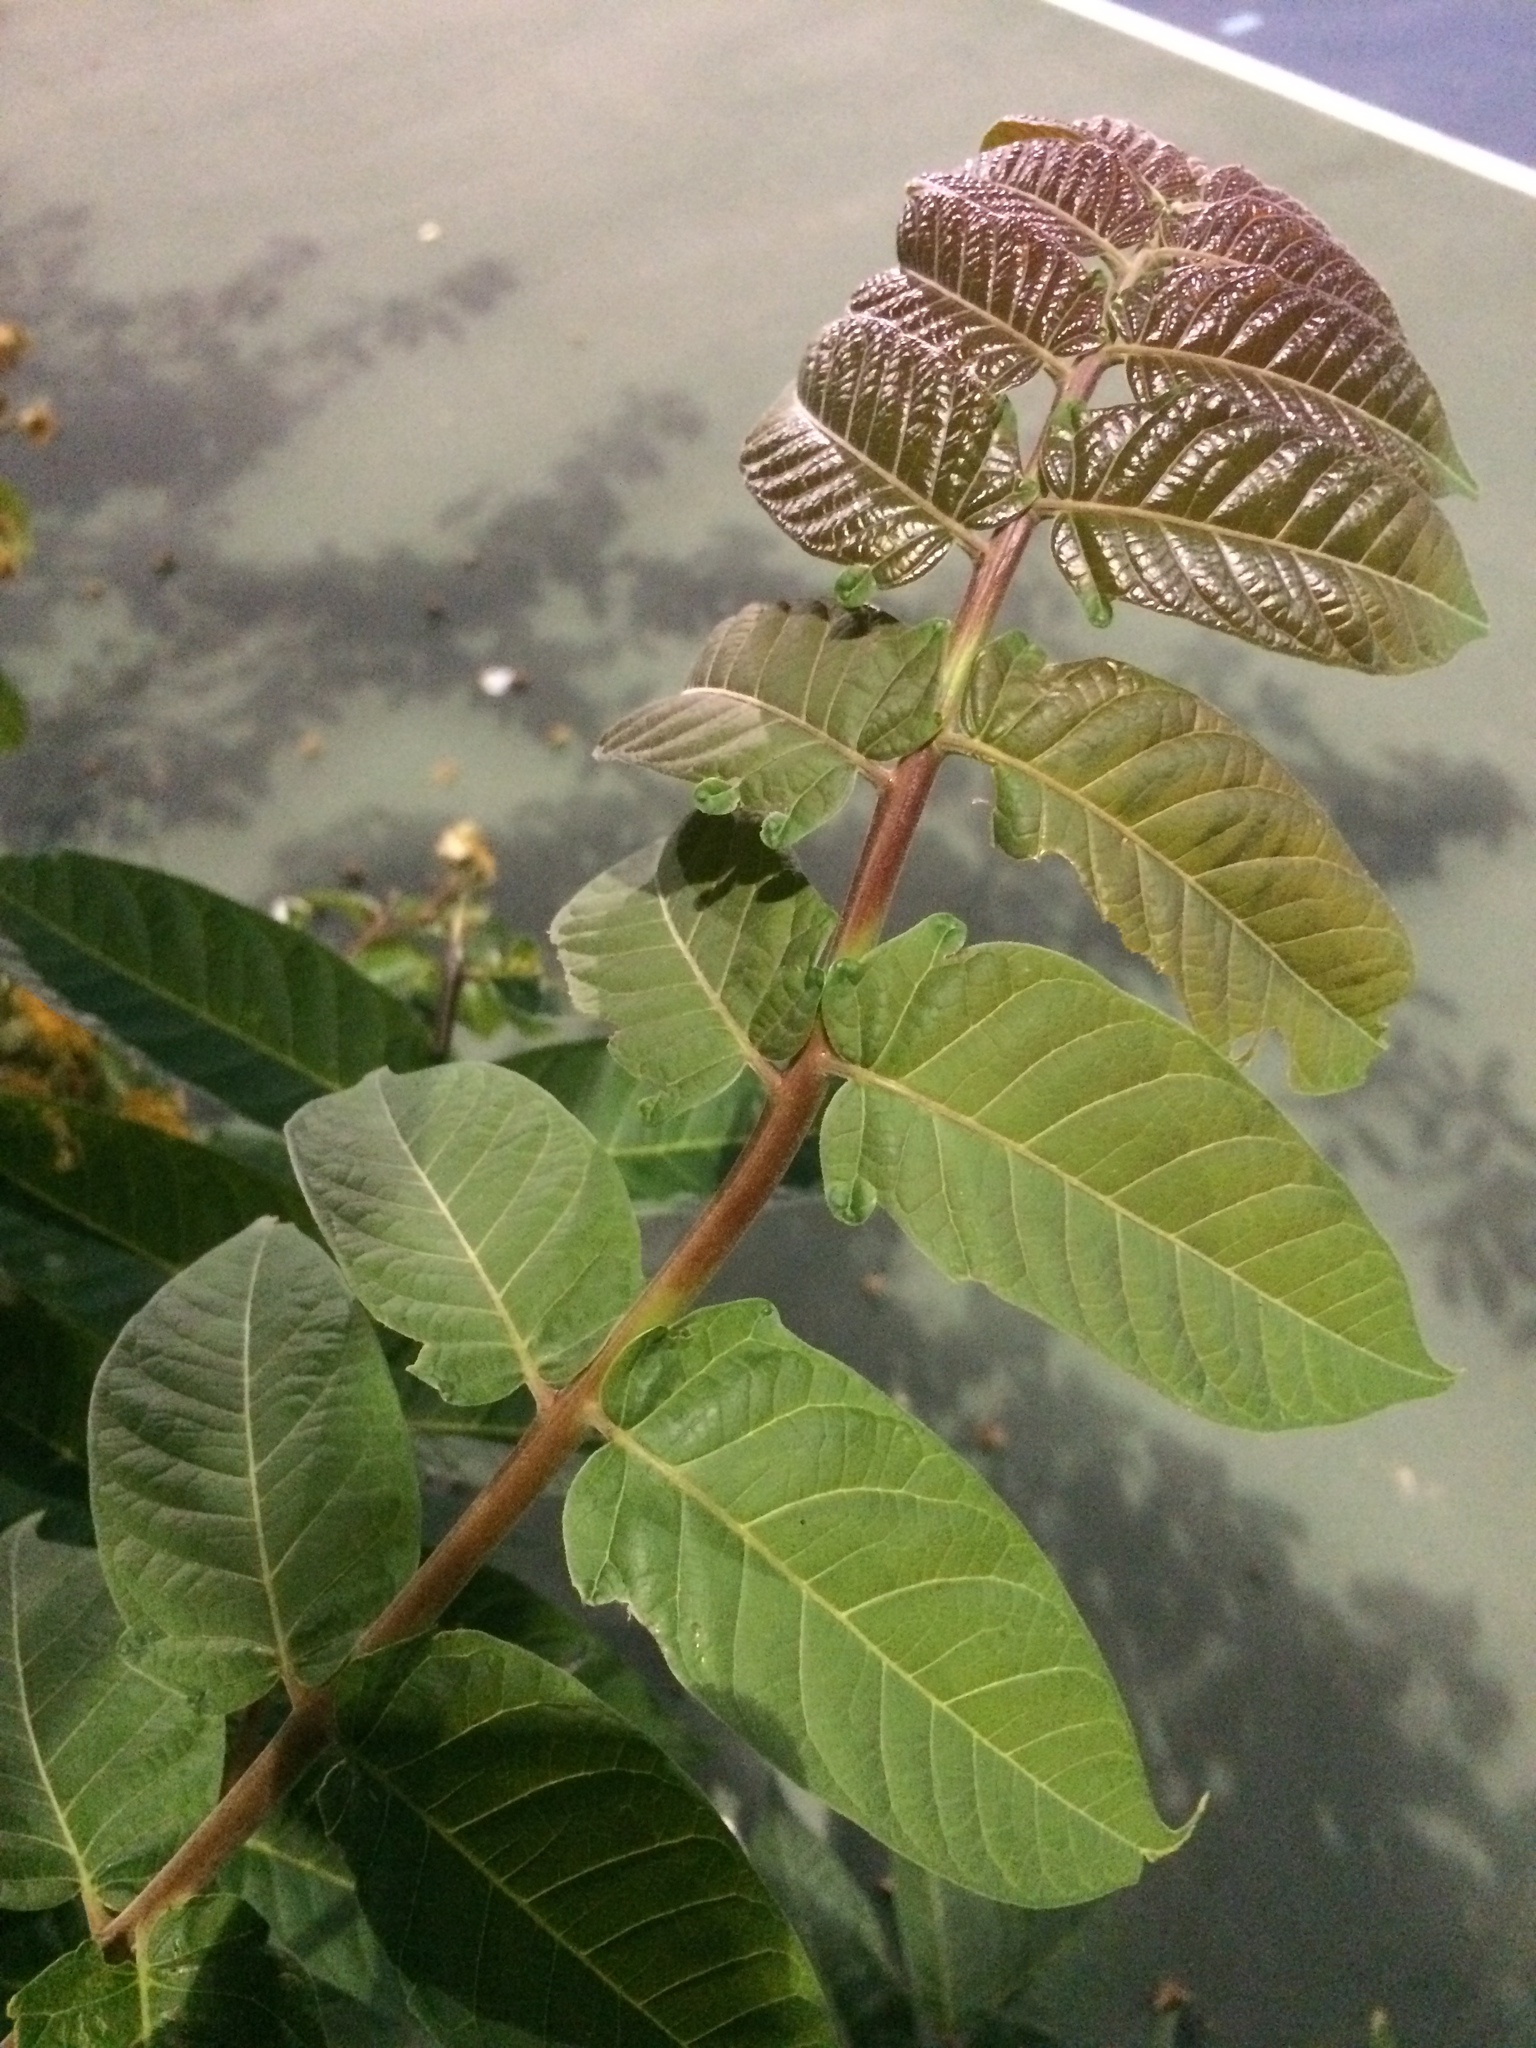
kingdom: Plantae
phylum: Tracheophyta
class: Magnoliopsida
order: Sapindales
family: Simaroubaceae
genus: Ailanthus
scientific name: Ailanthus altissima
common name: Tree-of-heaven
